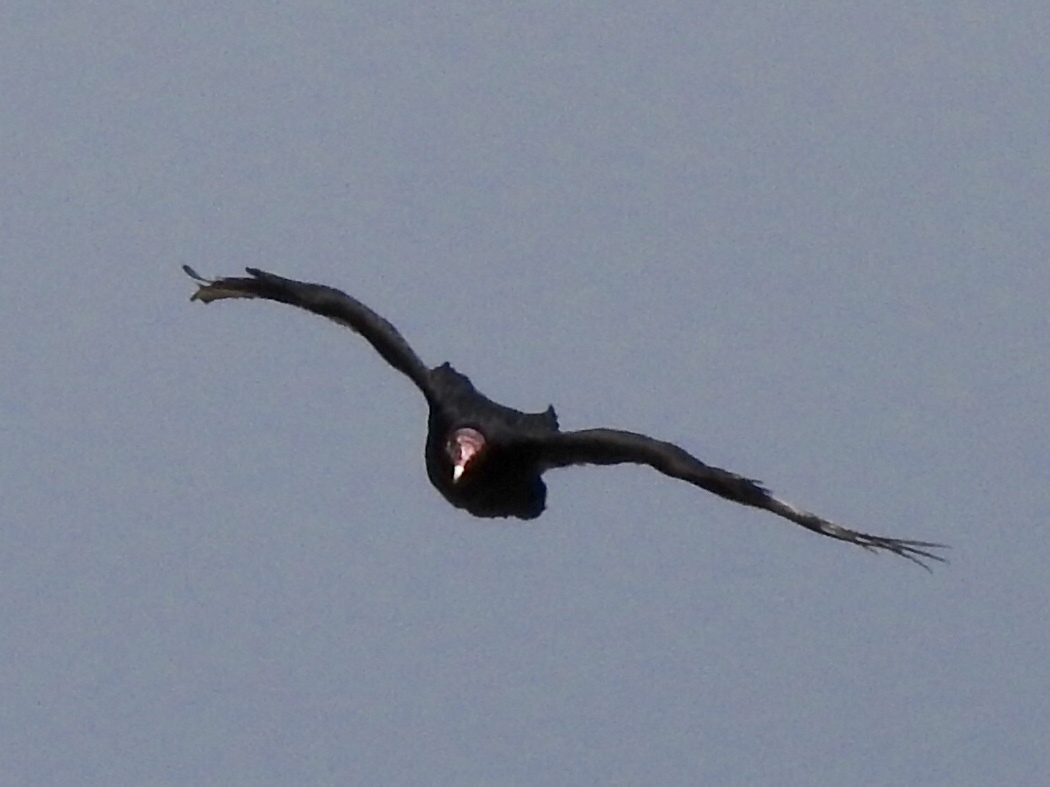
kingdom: Animalia
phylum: Chordata
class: Aves
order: Accipitriformes
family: Cathartidae
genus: Cathartes
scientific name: Cathartes aura
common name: Turkey vulture
